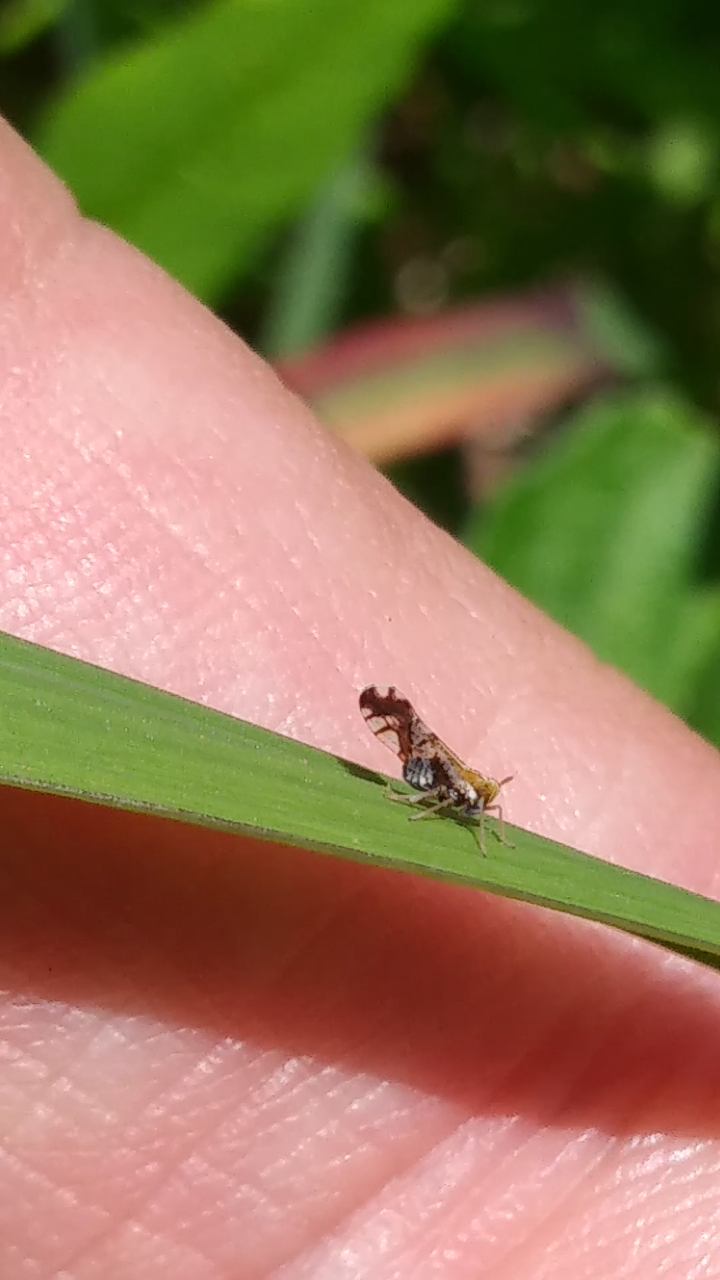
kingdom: Animalia
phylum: Arthropoda
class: Insecta
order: Hemiptera
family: Delphacidae
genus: Liburniella
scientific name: Liburniella ornata
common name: Ornate planthopper
